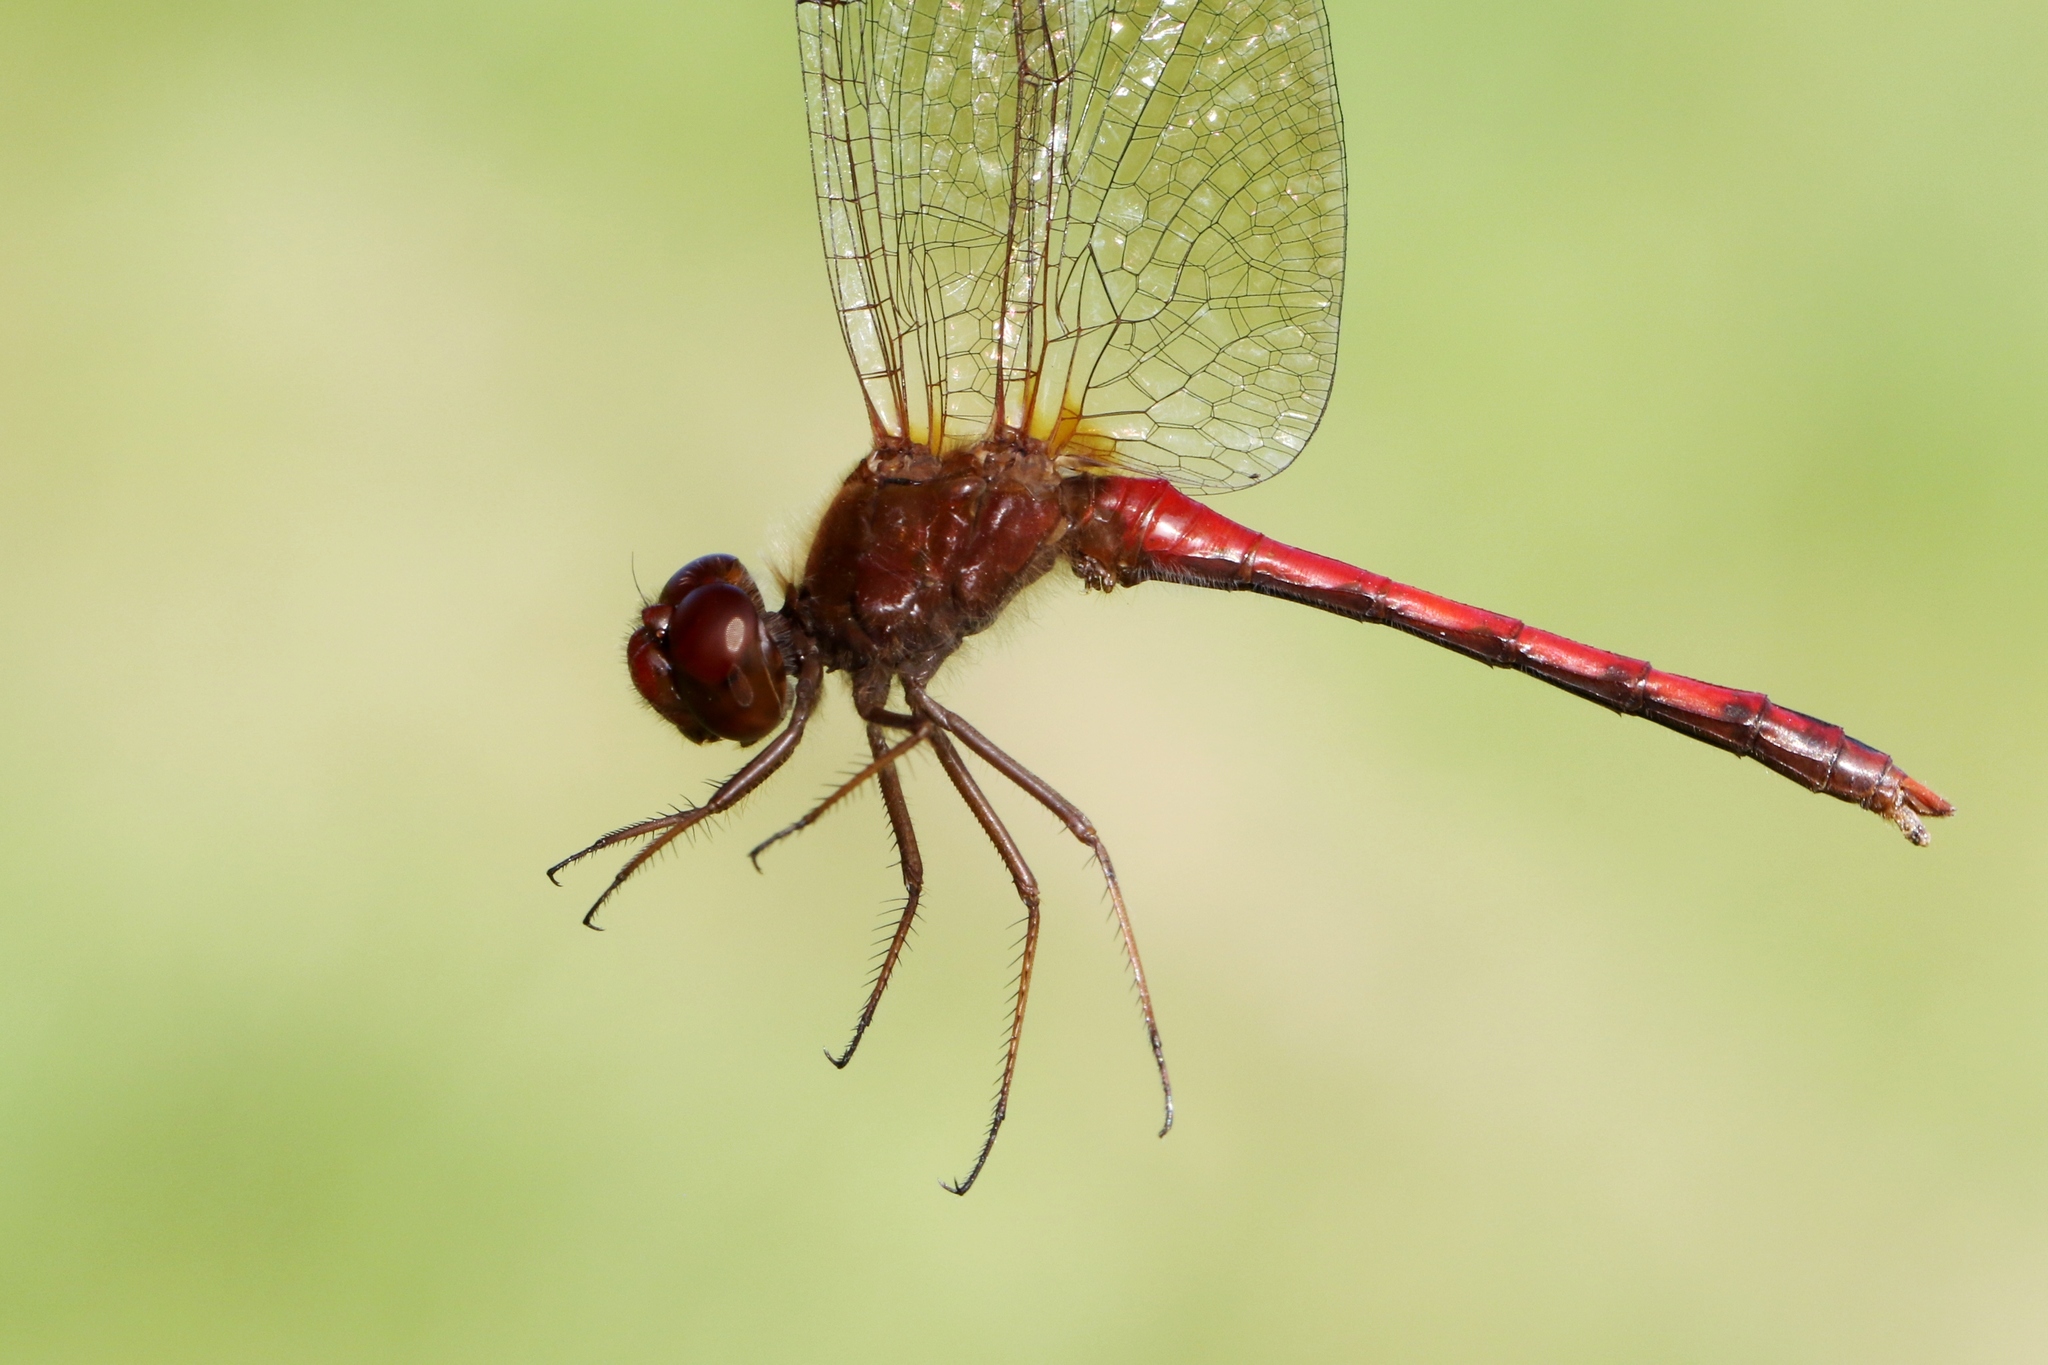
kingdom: Animalia
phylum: Arthropoda
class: Insecta
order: Odonata
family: Libellulidae
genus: Sympetrum
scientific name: Sympetrum vicinum
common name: Autumn meadowhawk
